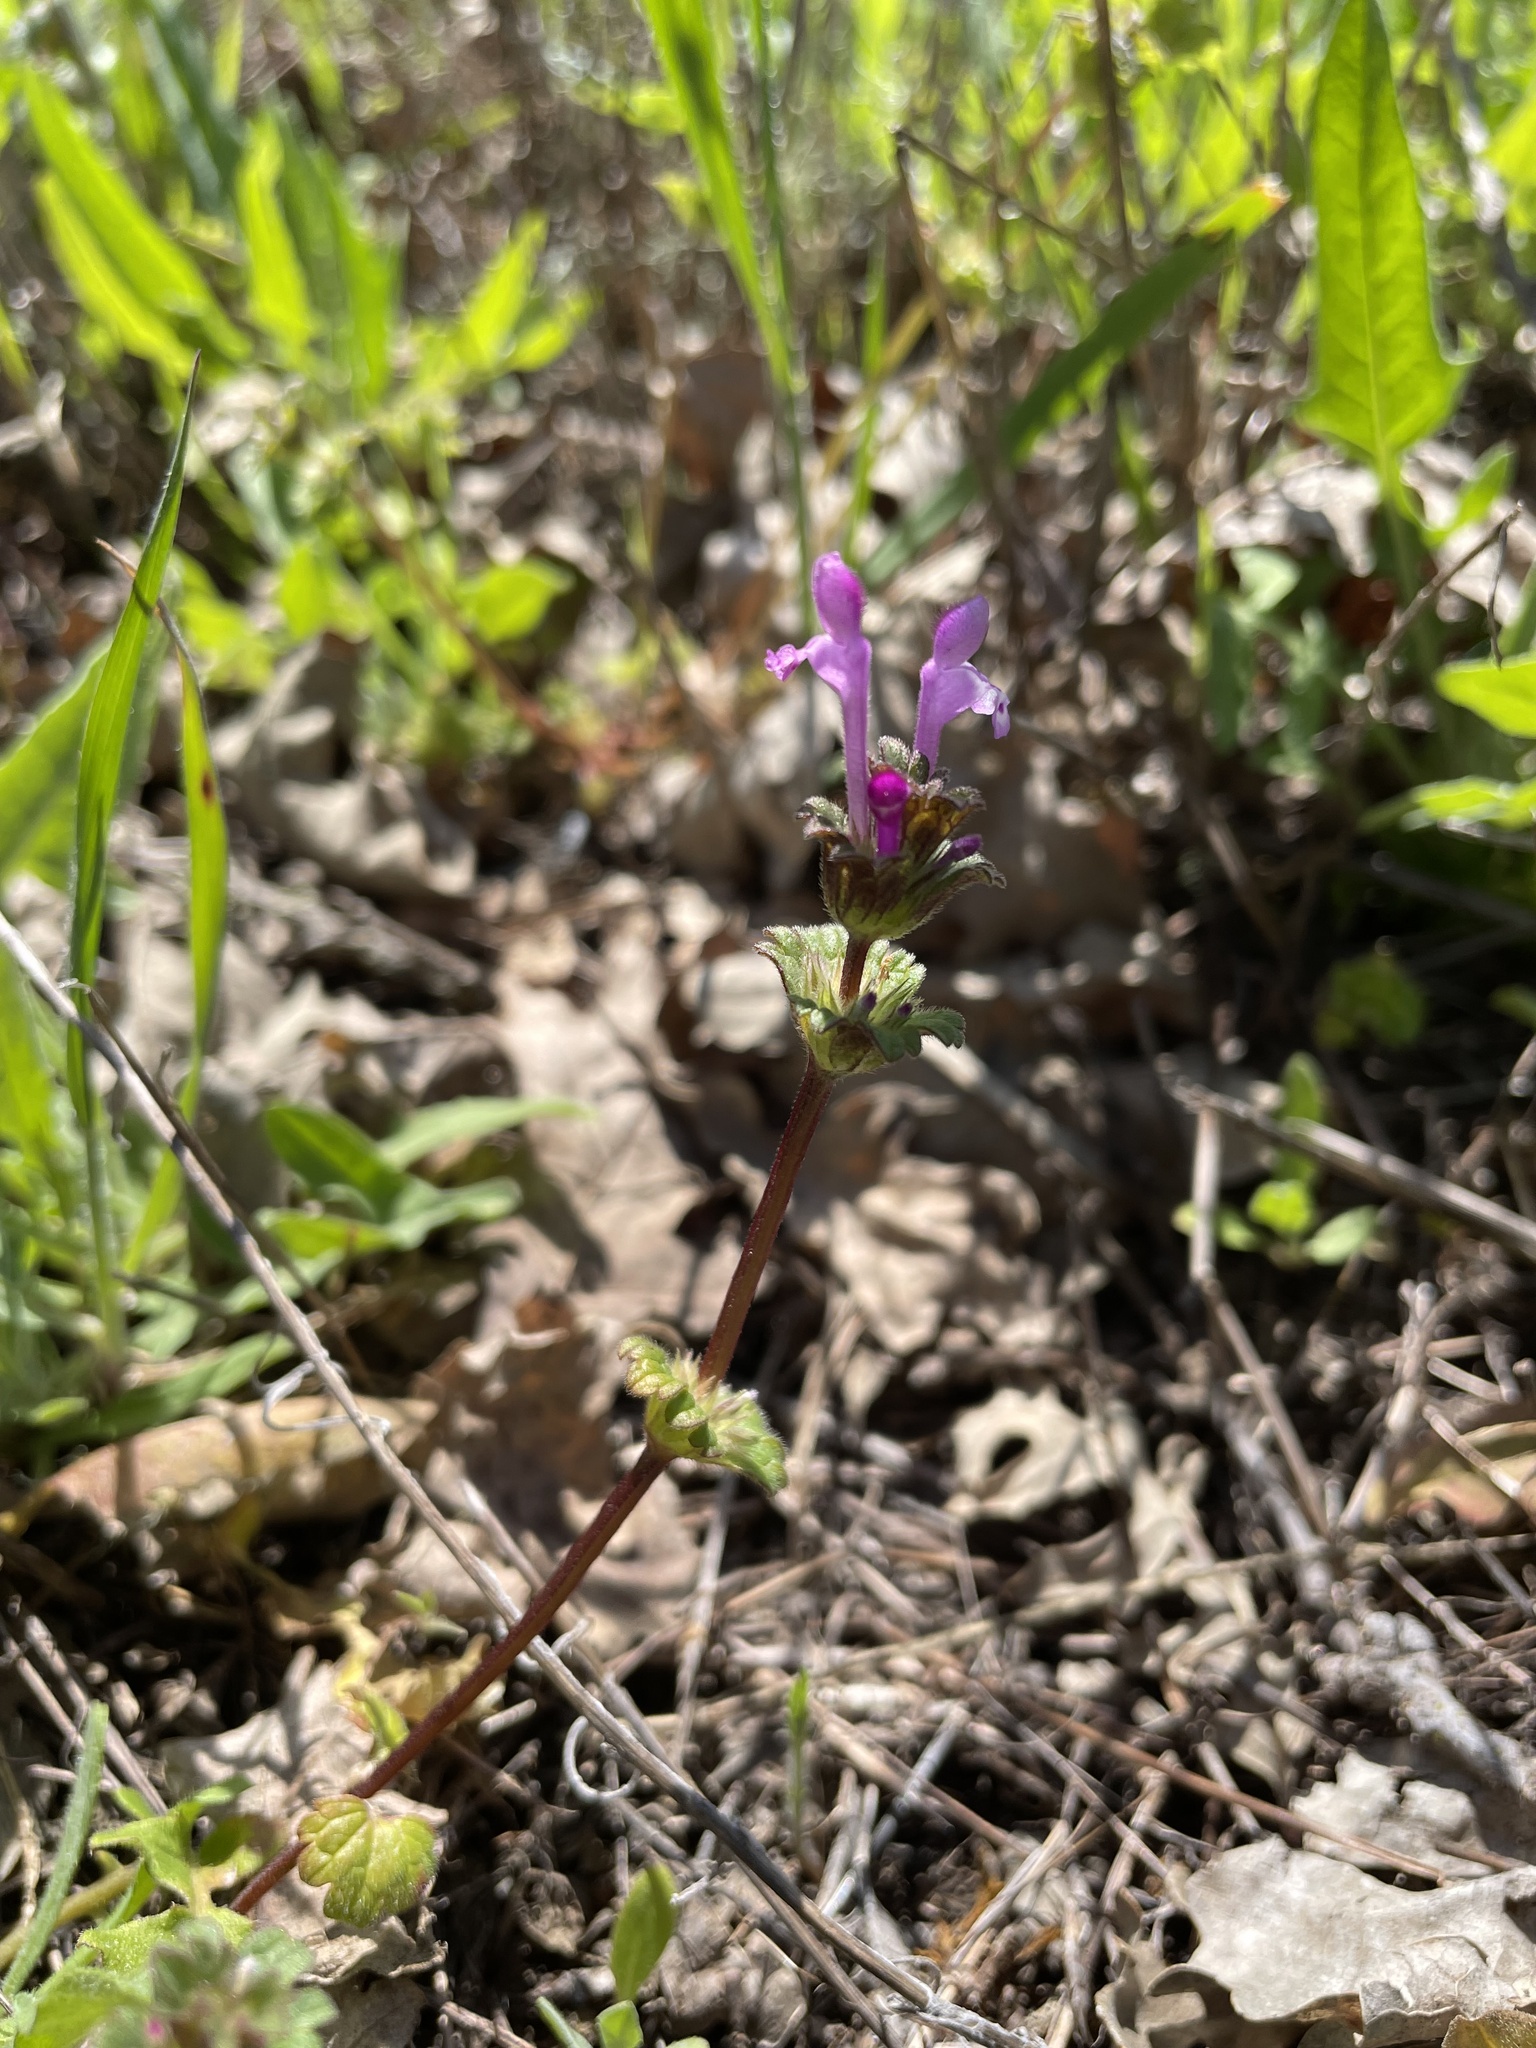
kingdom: Plantae
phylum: Tracheophyta
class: Magnoliopsida
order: Lamiales
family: Lamiaceae
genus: Lamium
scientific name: Lamium amplexicaule
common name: Henbit dead-nettle
